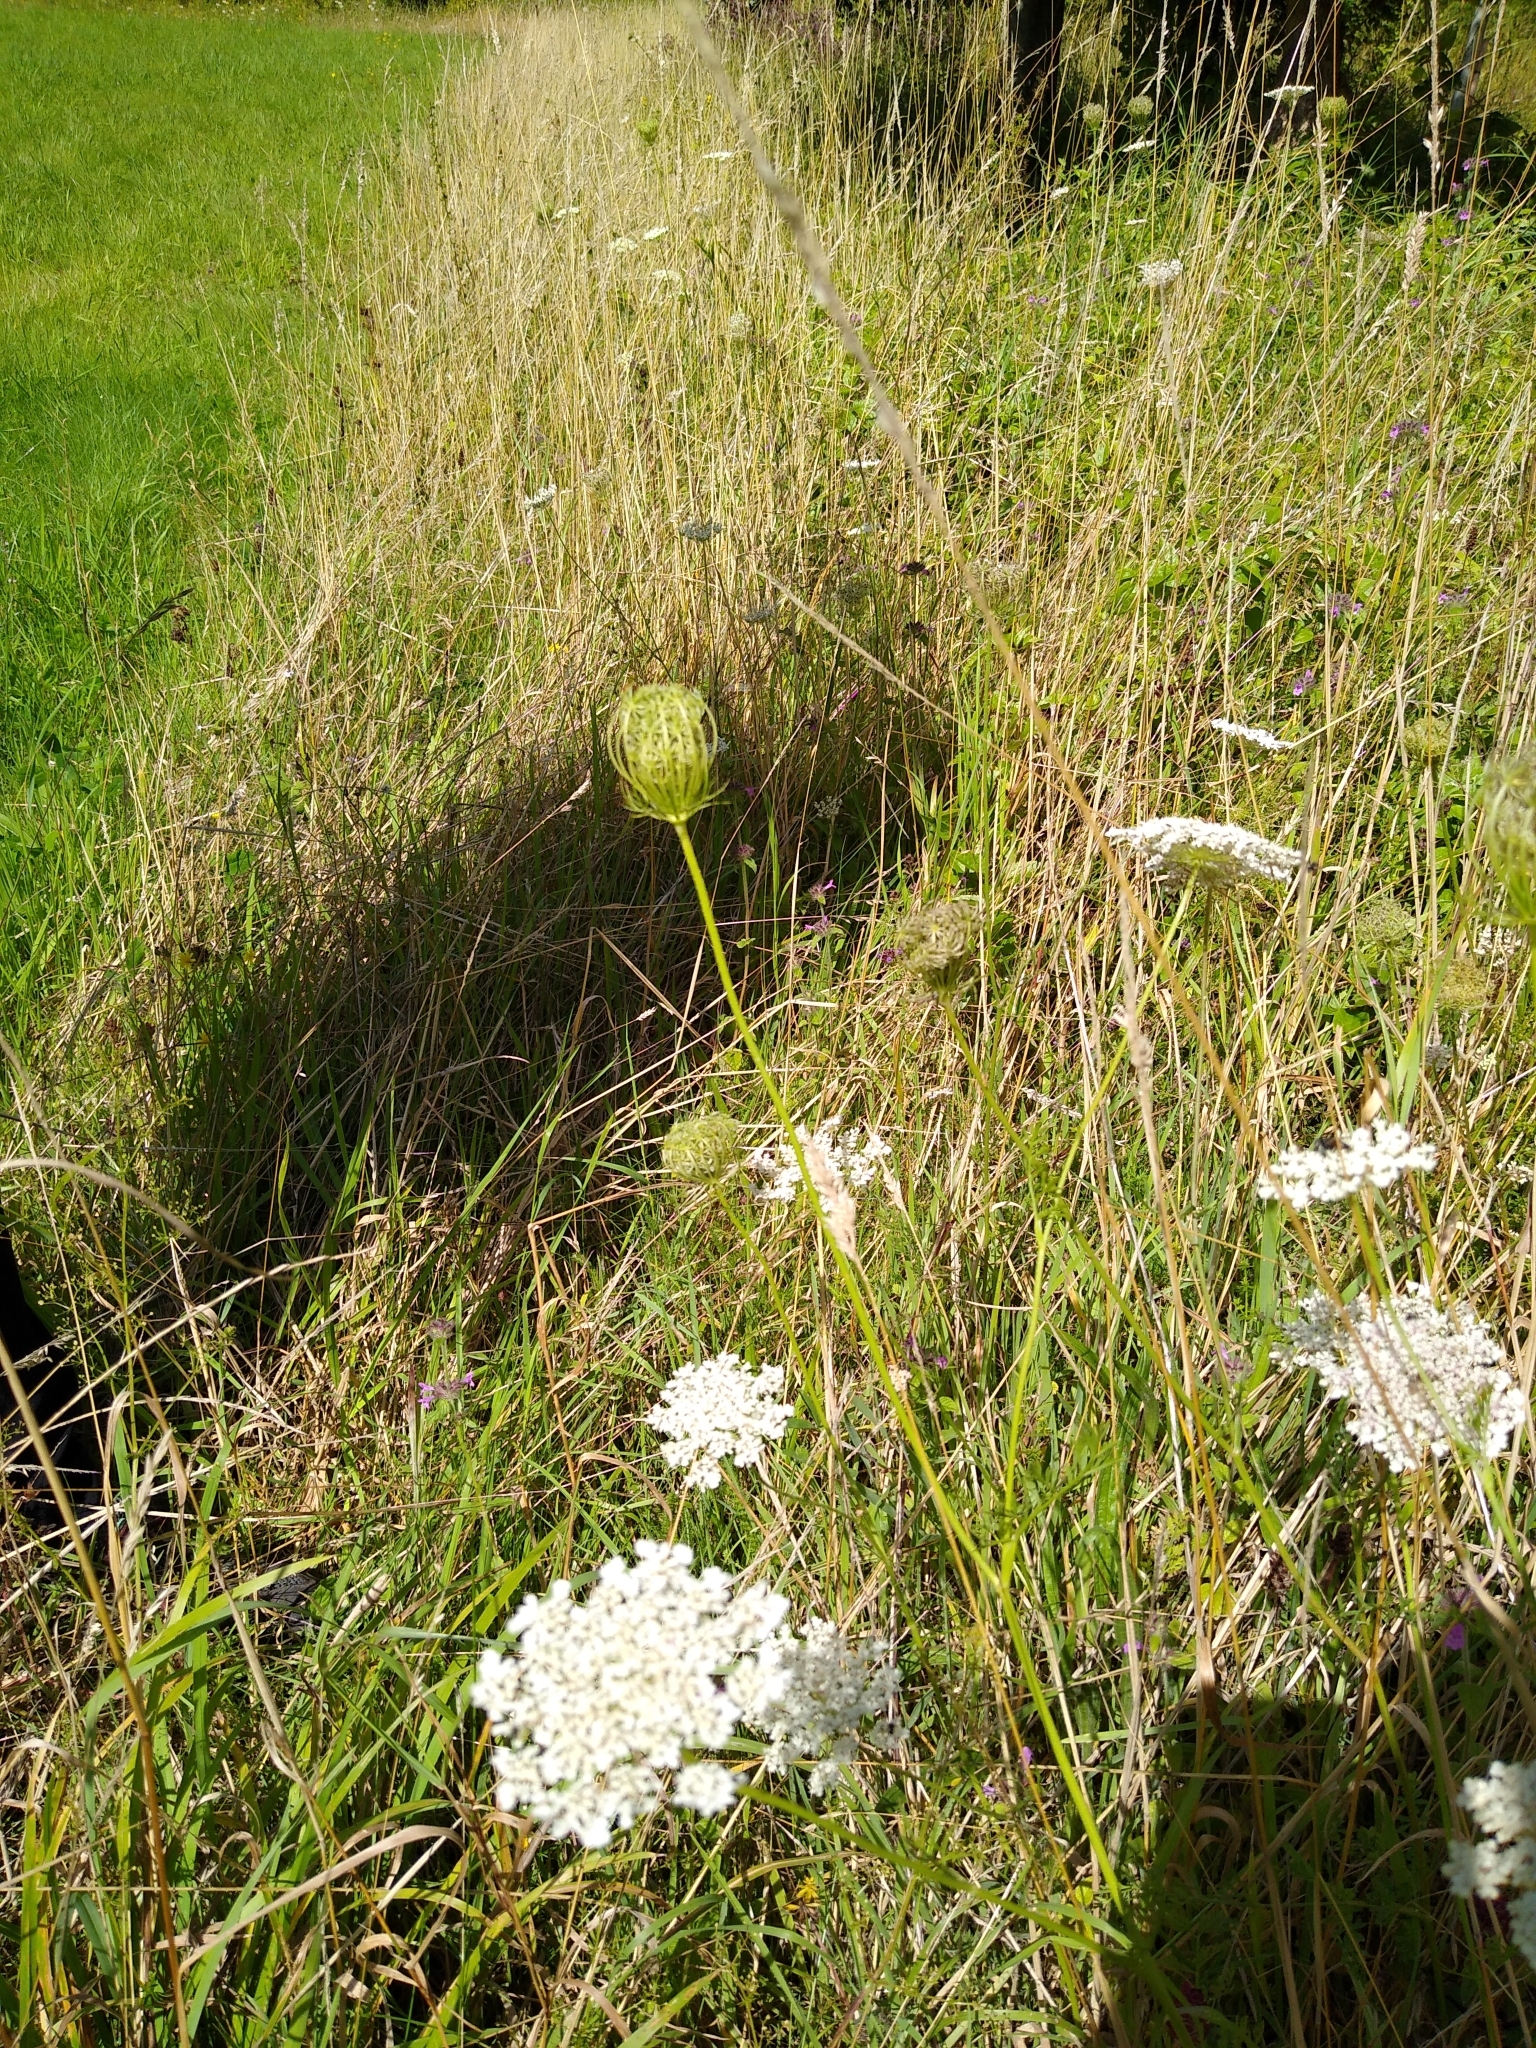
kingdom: Plantae
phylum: Tracheophyta
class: Magnoliopsida
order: Apiales
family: Apiaceae
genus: Daucus
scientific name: Daucus carota
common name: Wild carrot
